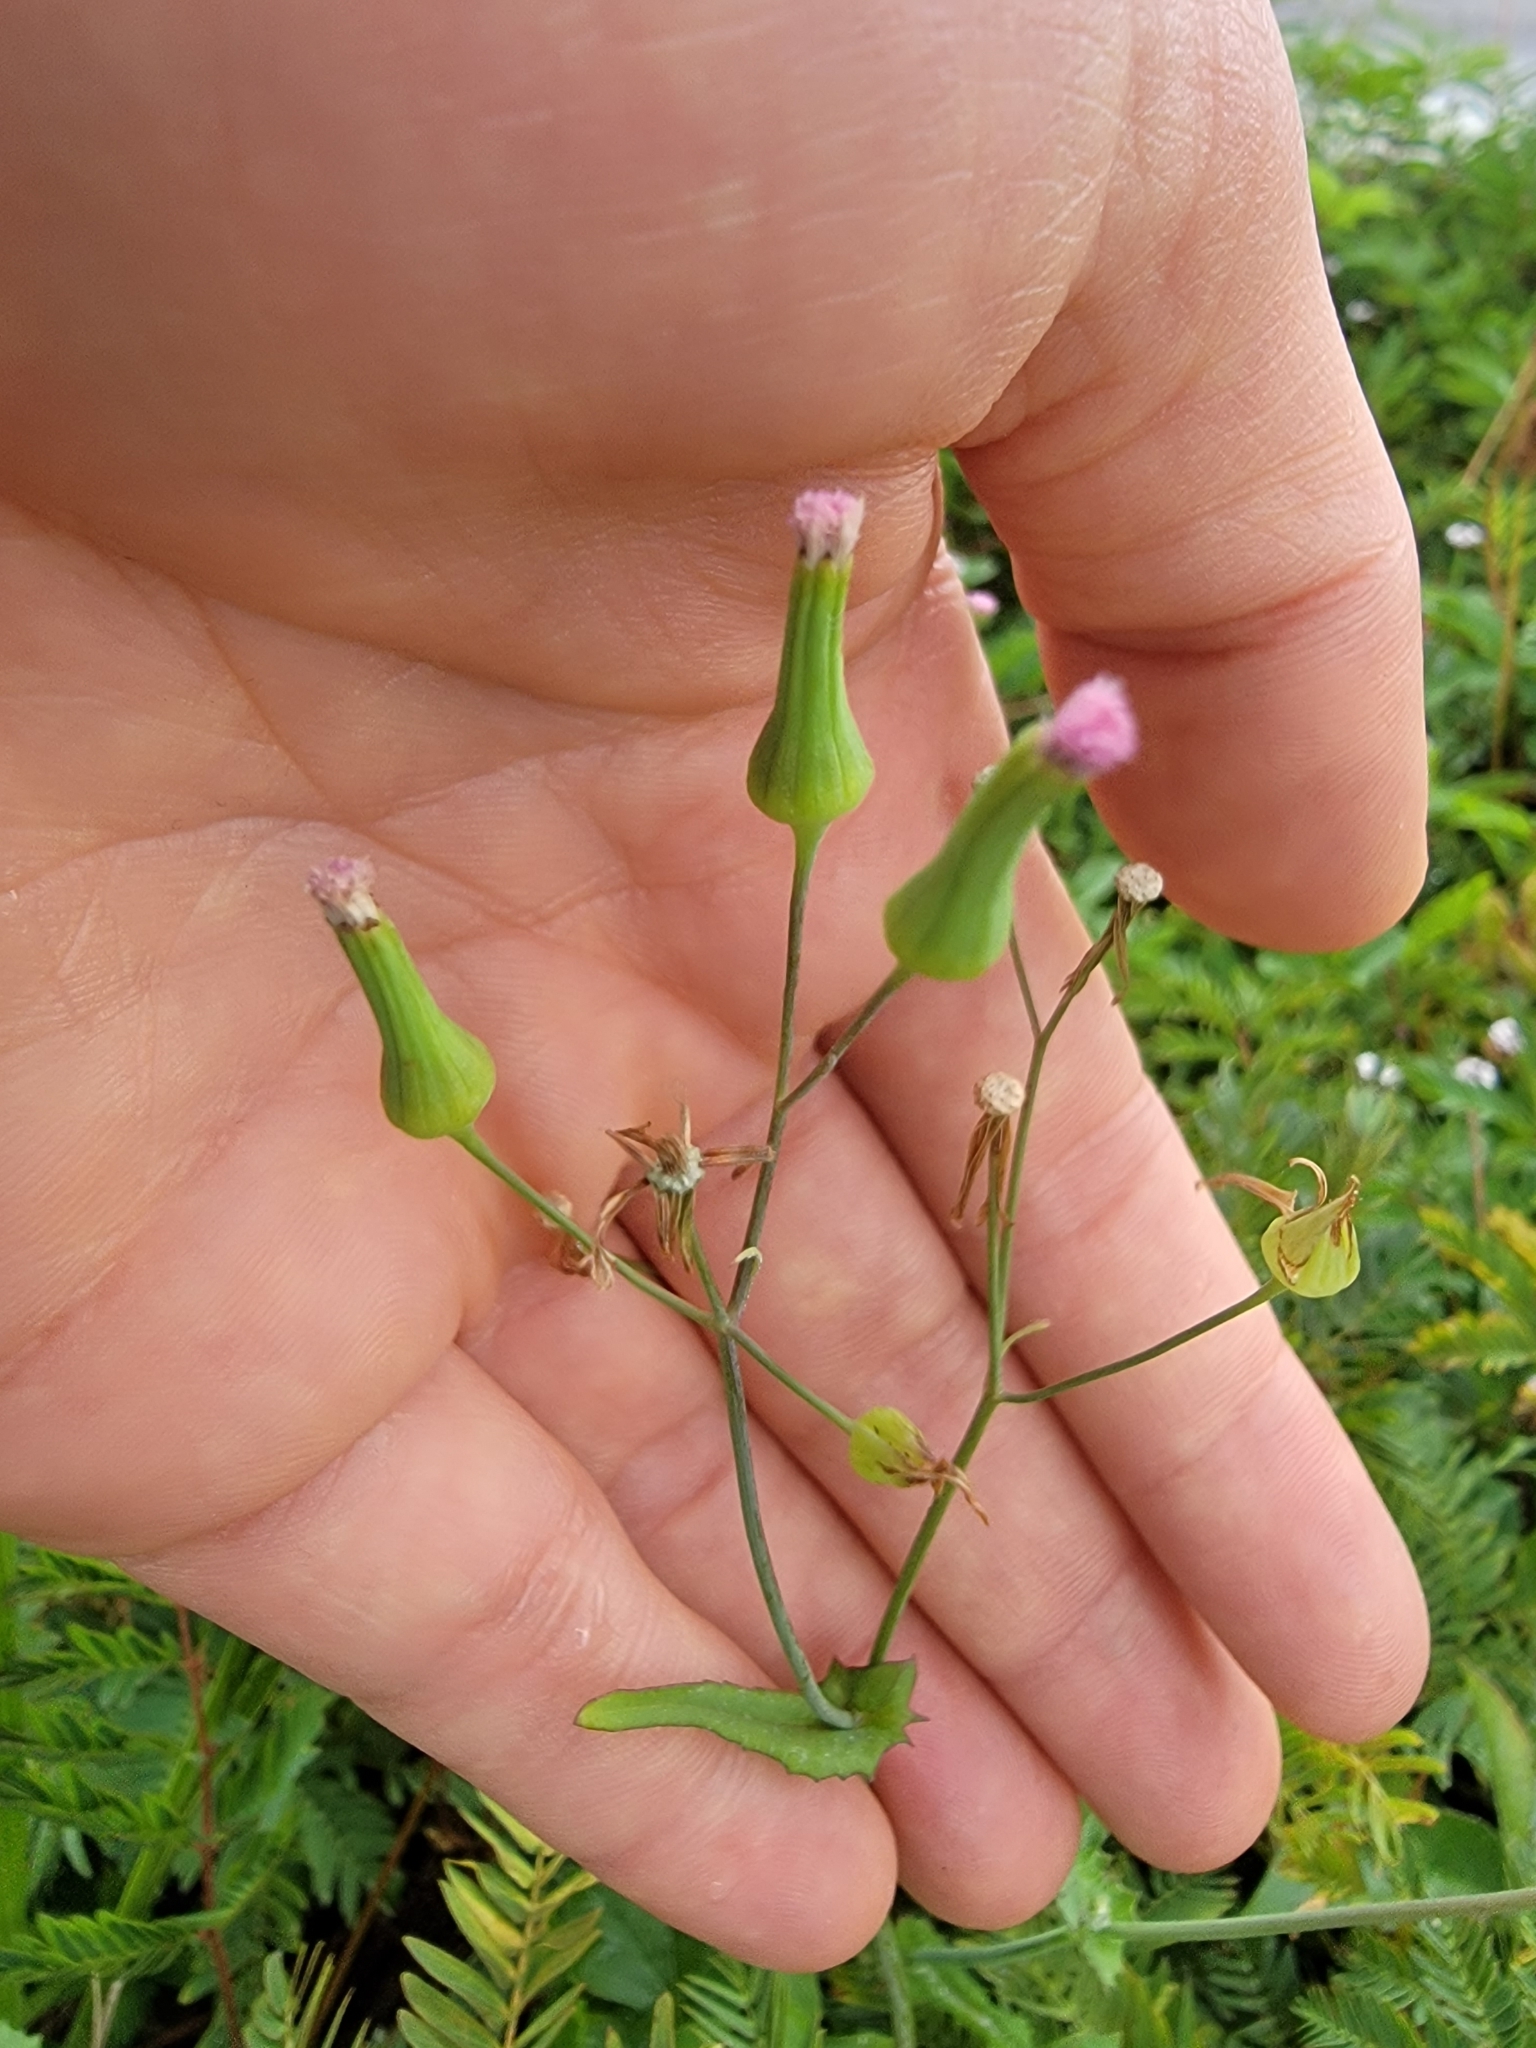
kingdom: Plantae
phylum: Tracheophyta
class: Magnoliopsida
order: Asterales
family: Asteraceae
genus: Emilia
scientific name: Emilia sonchifolia
